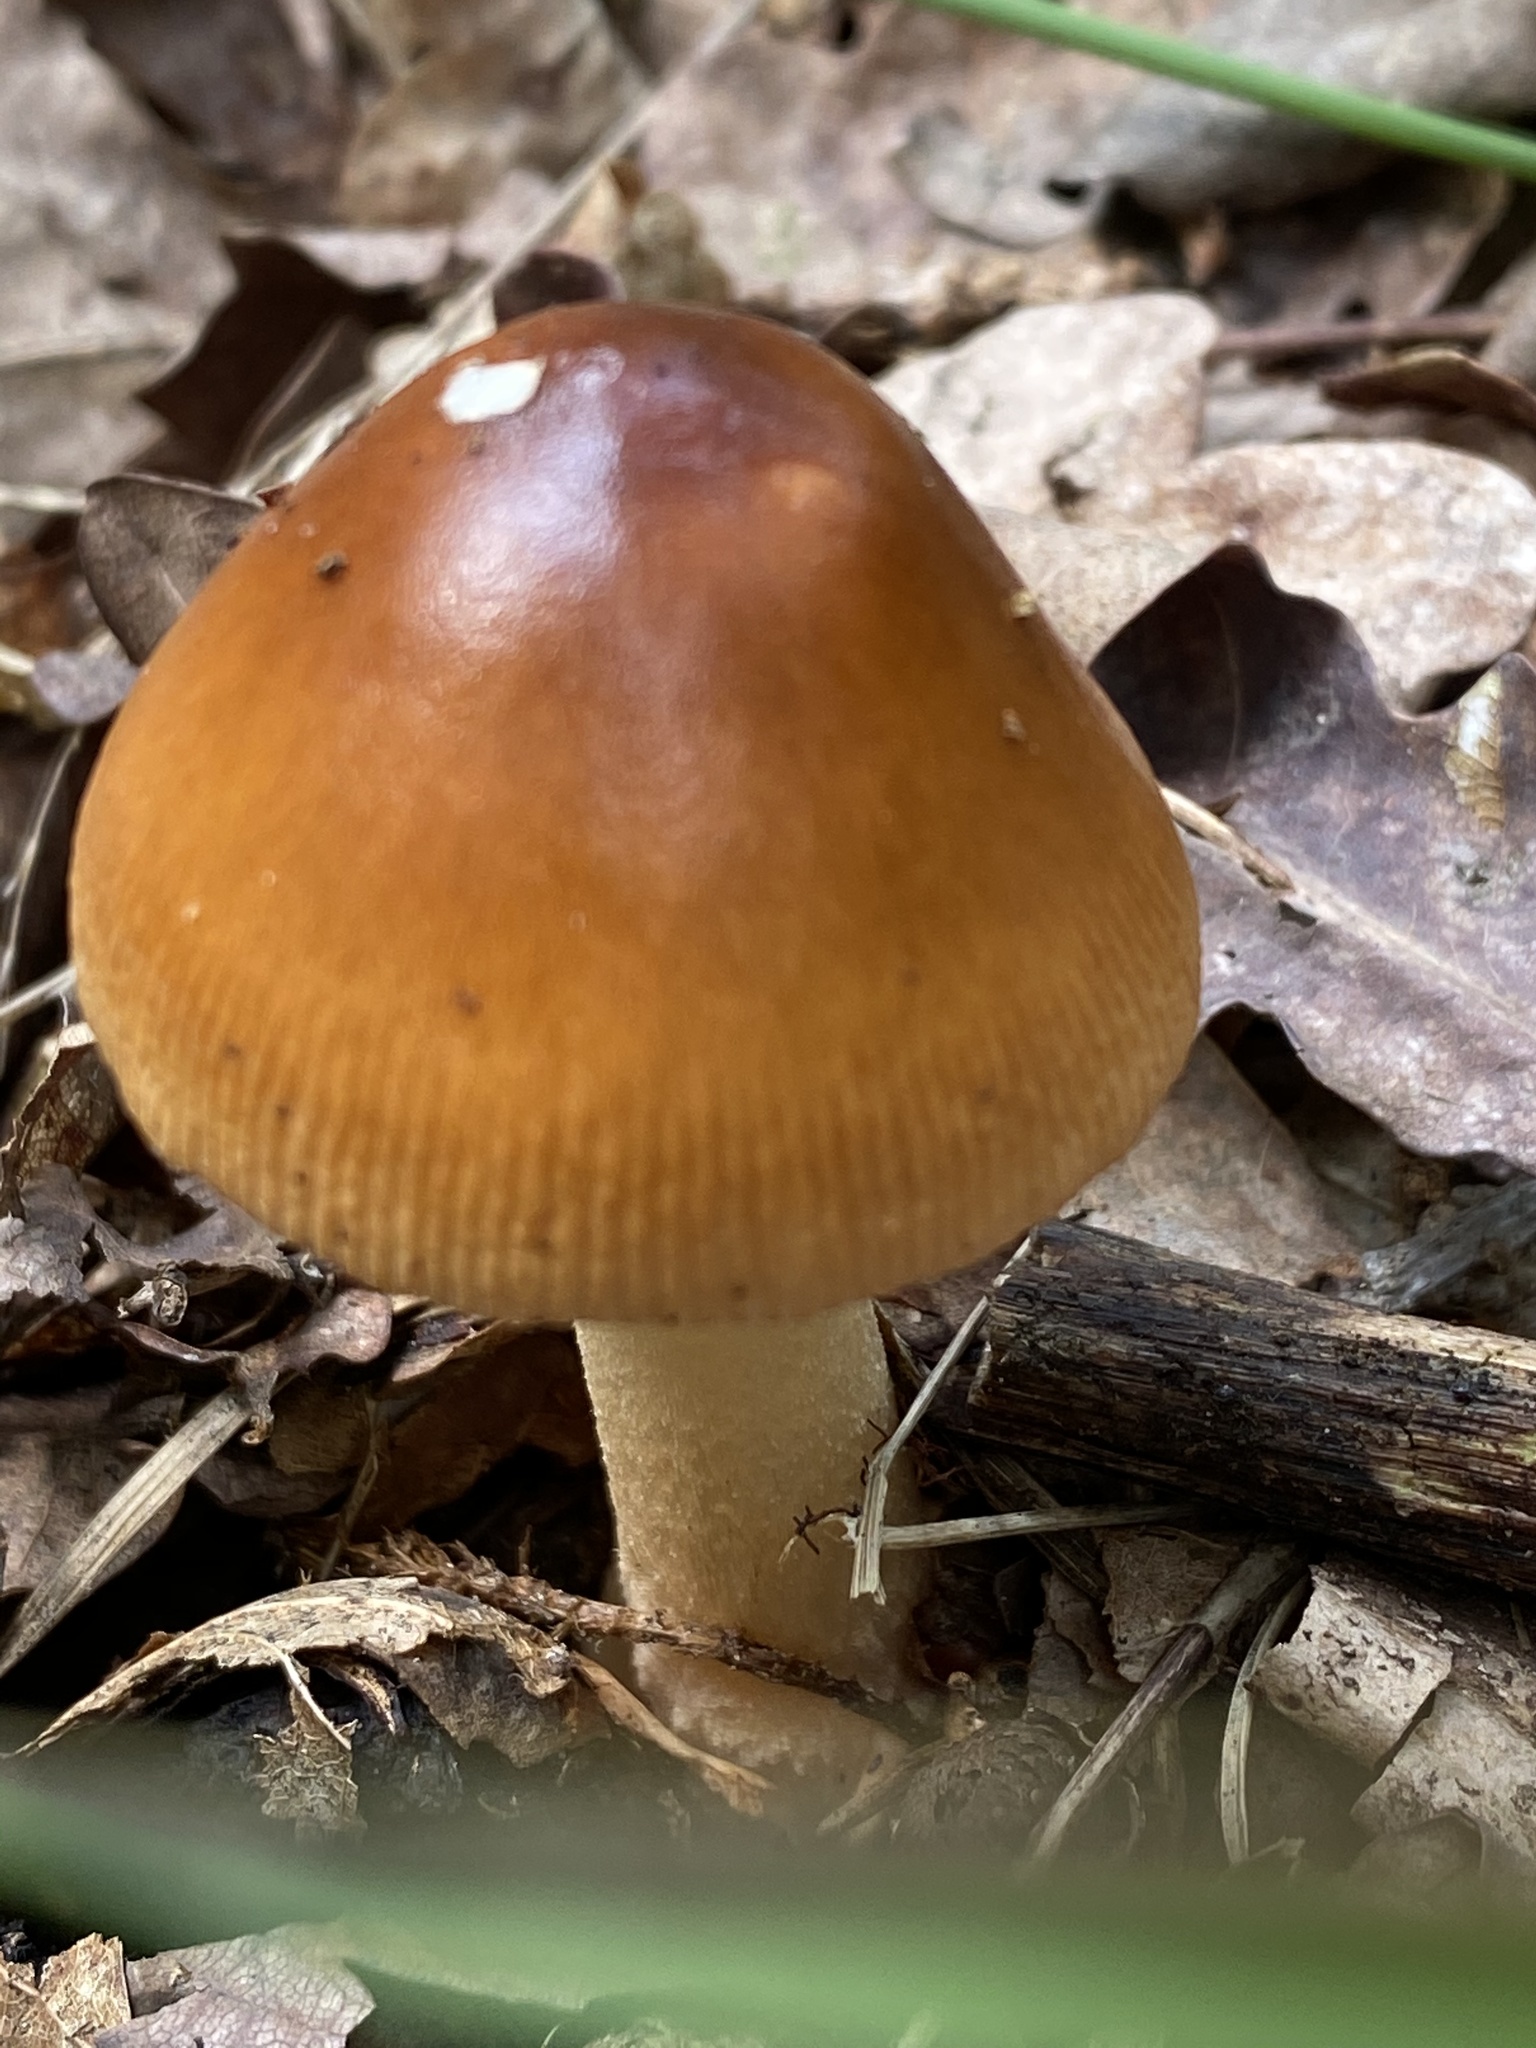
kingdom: Fungi
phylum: Basidiomycota
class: Agaricomycetes
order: Agaricales
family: Amanitaceae
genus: Amanita
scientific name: Amanita fulva
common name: Tawny grisette
